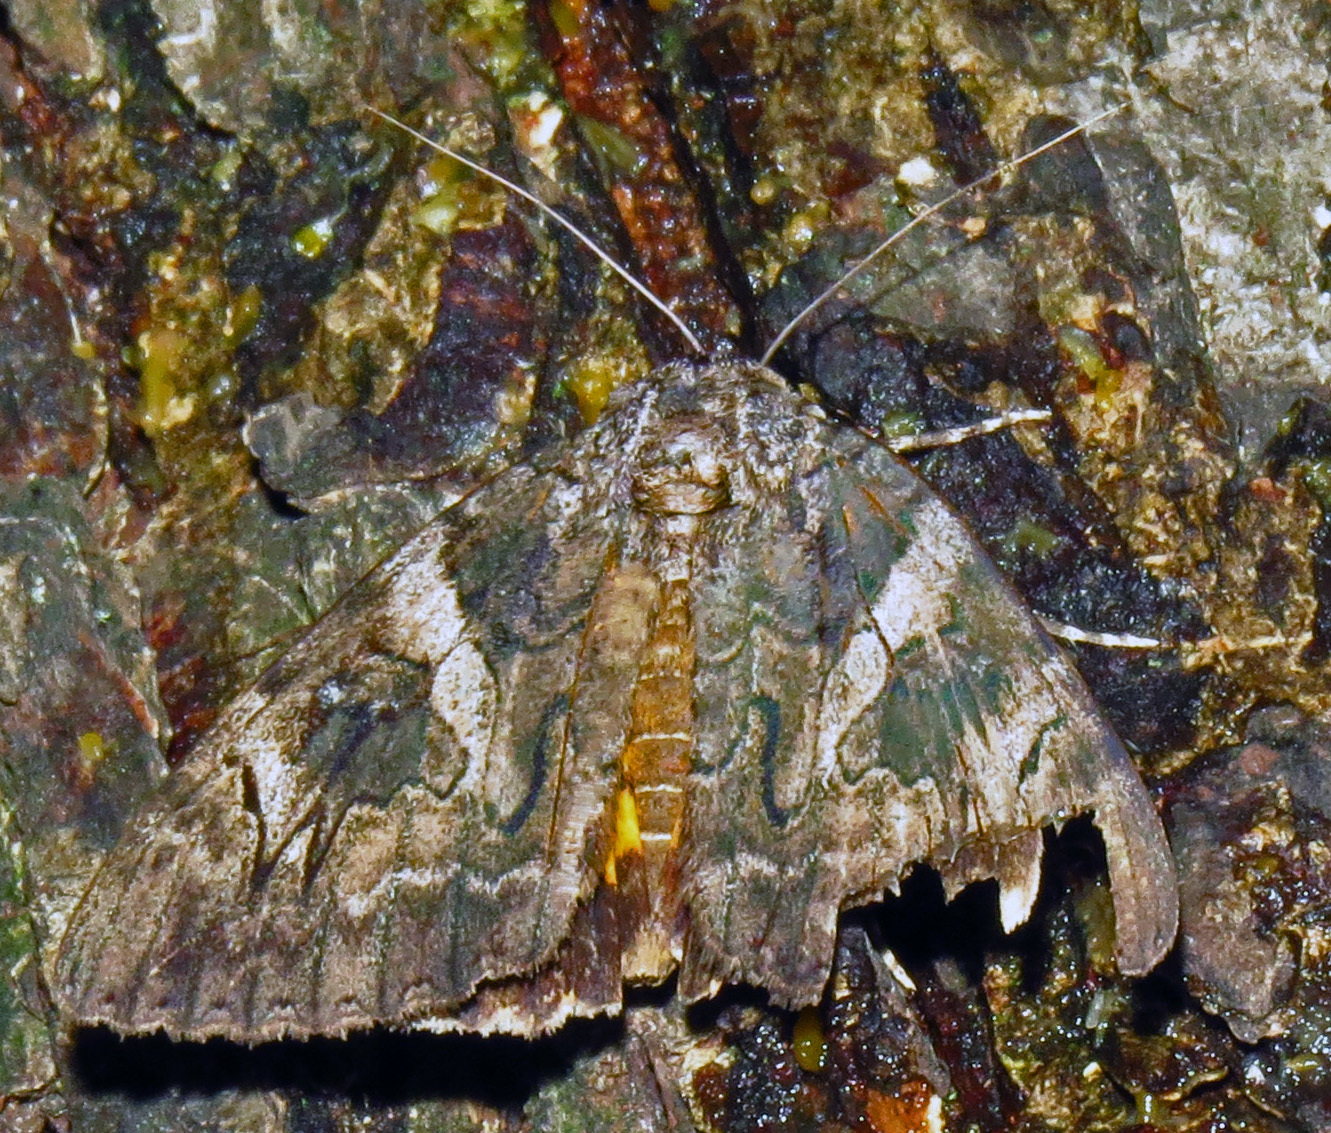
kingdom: Animalia
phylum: Arthropoda
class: Insecta
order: Lepidoptera
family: Erebidae
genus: Catocala
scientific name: Catocala piatrix
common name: The penitent underwing
